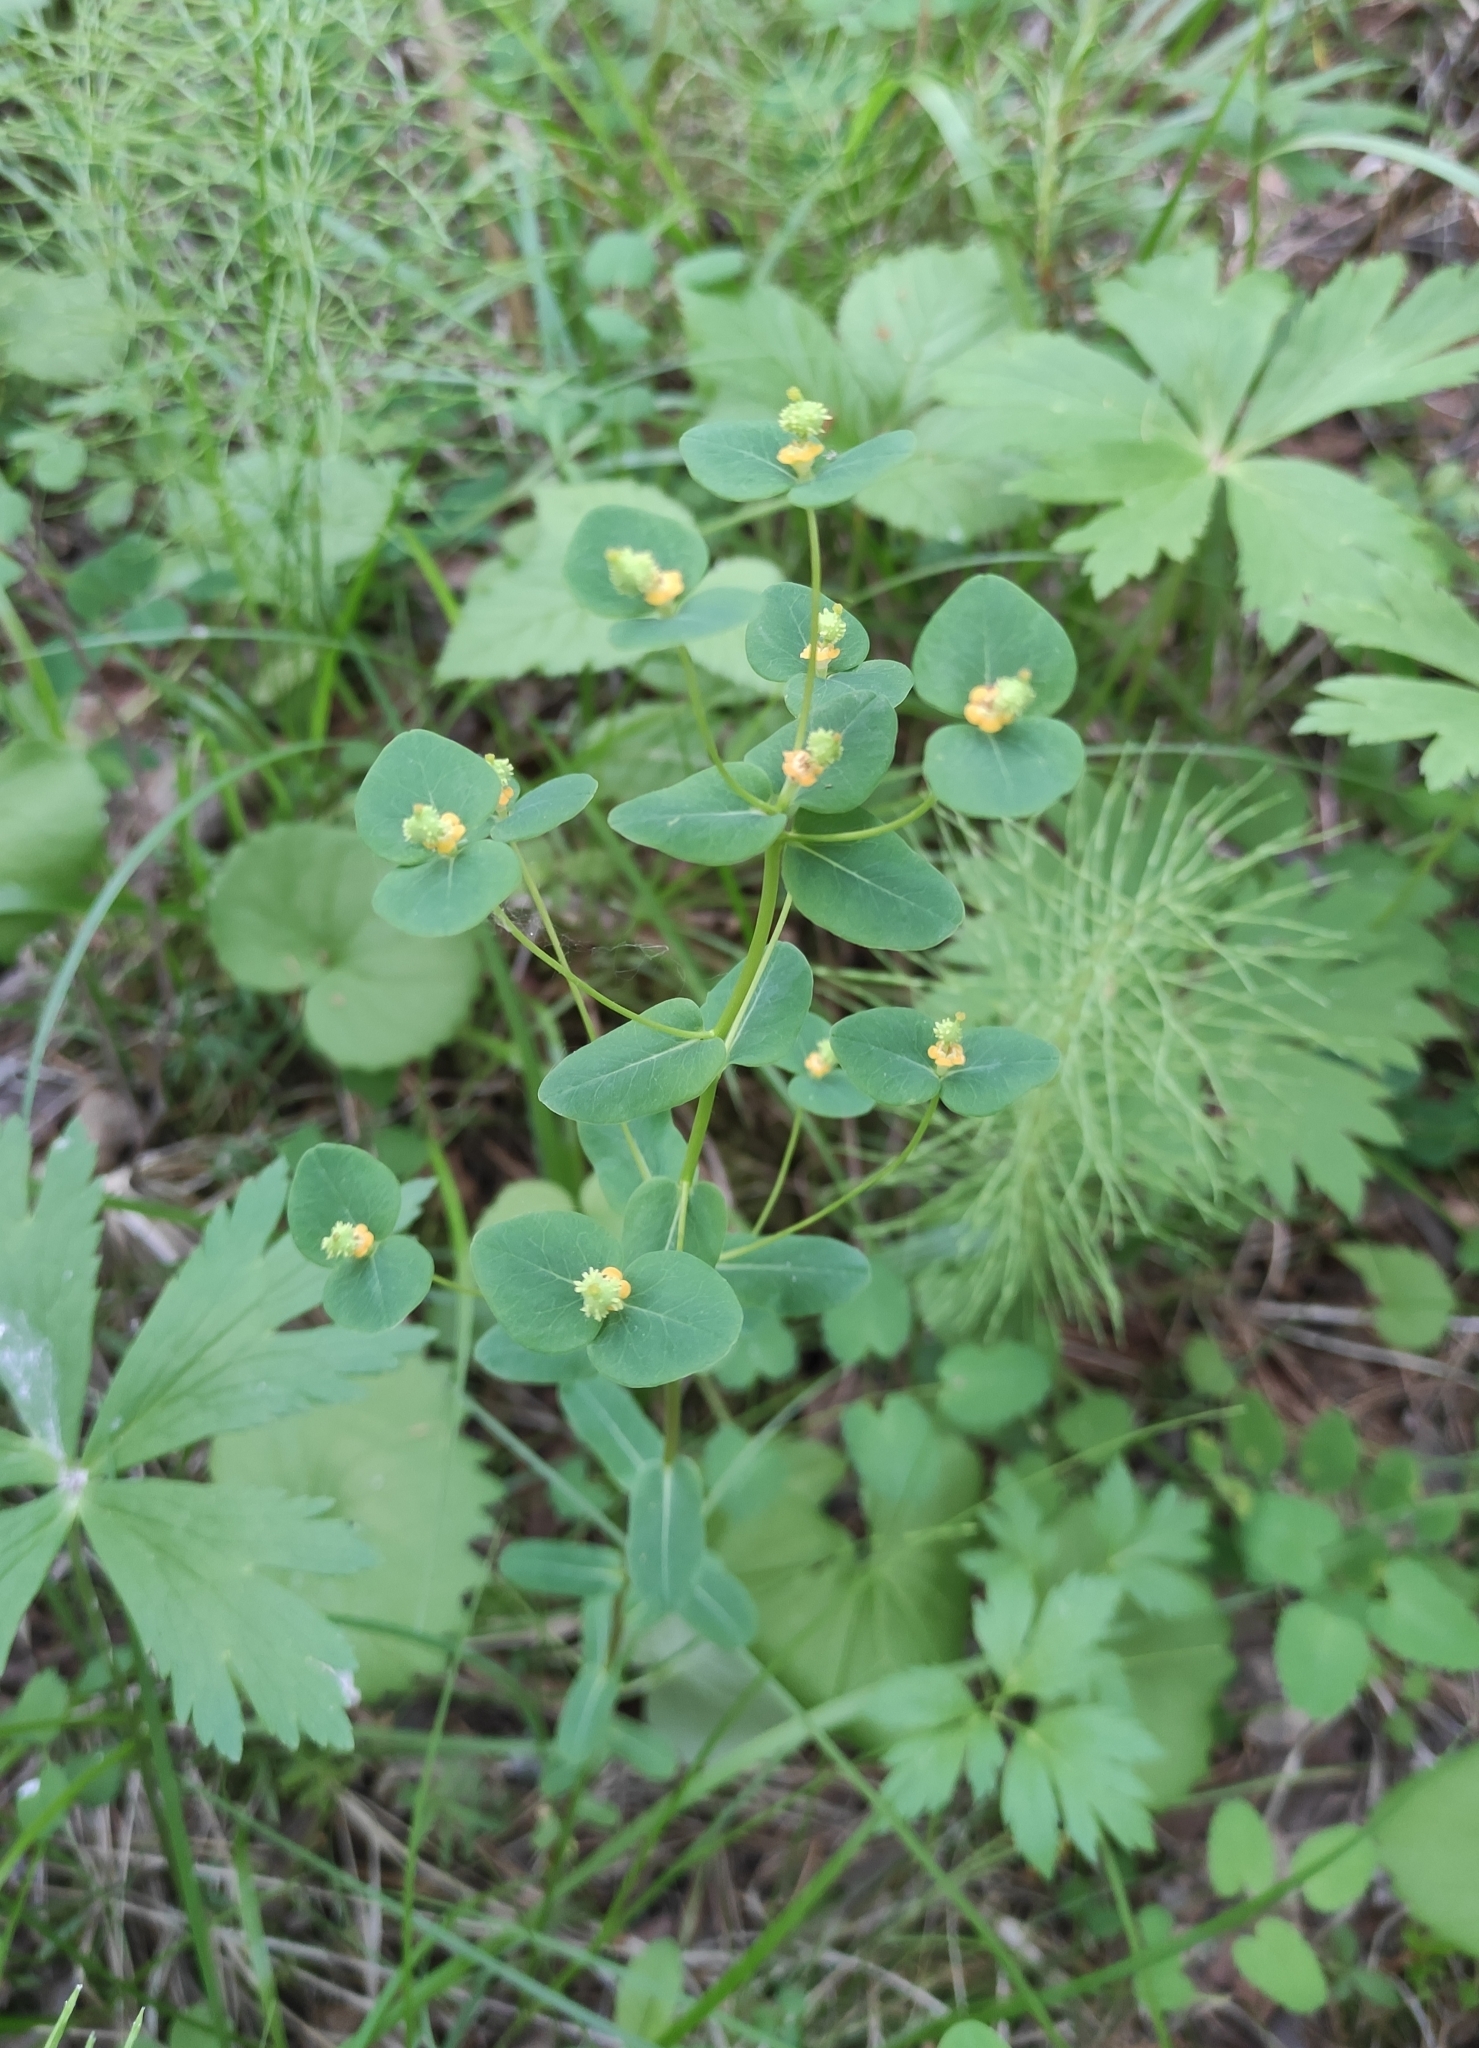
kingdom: Plantae
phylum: Tracheophyta
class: Magnoliopsida
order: Malpighiales
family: Euphorbiaceae
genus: Euphorbia
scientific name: Euphorbia jenisseiensis
